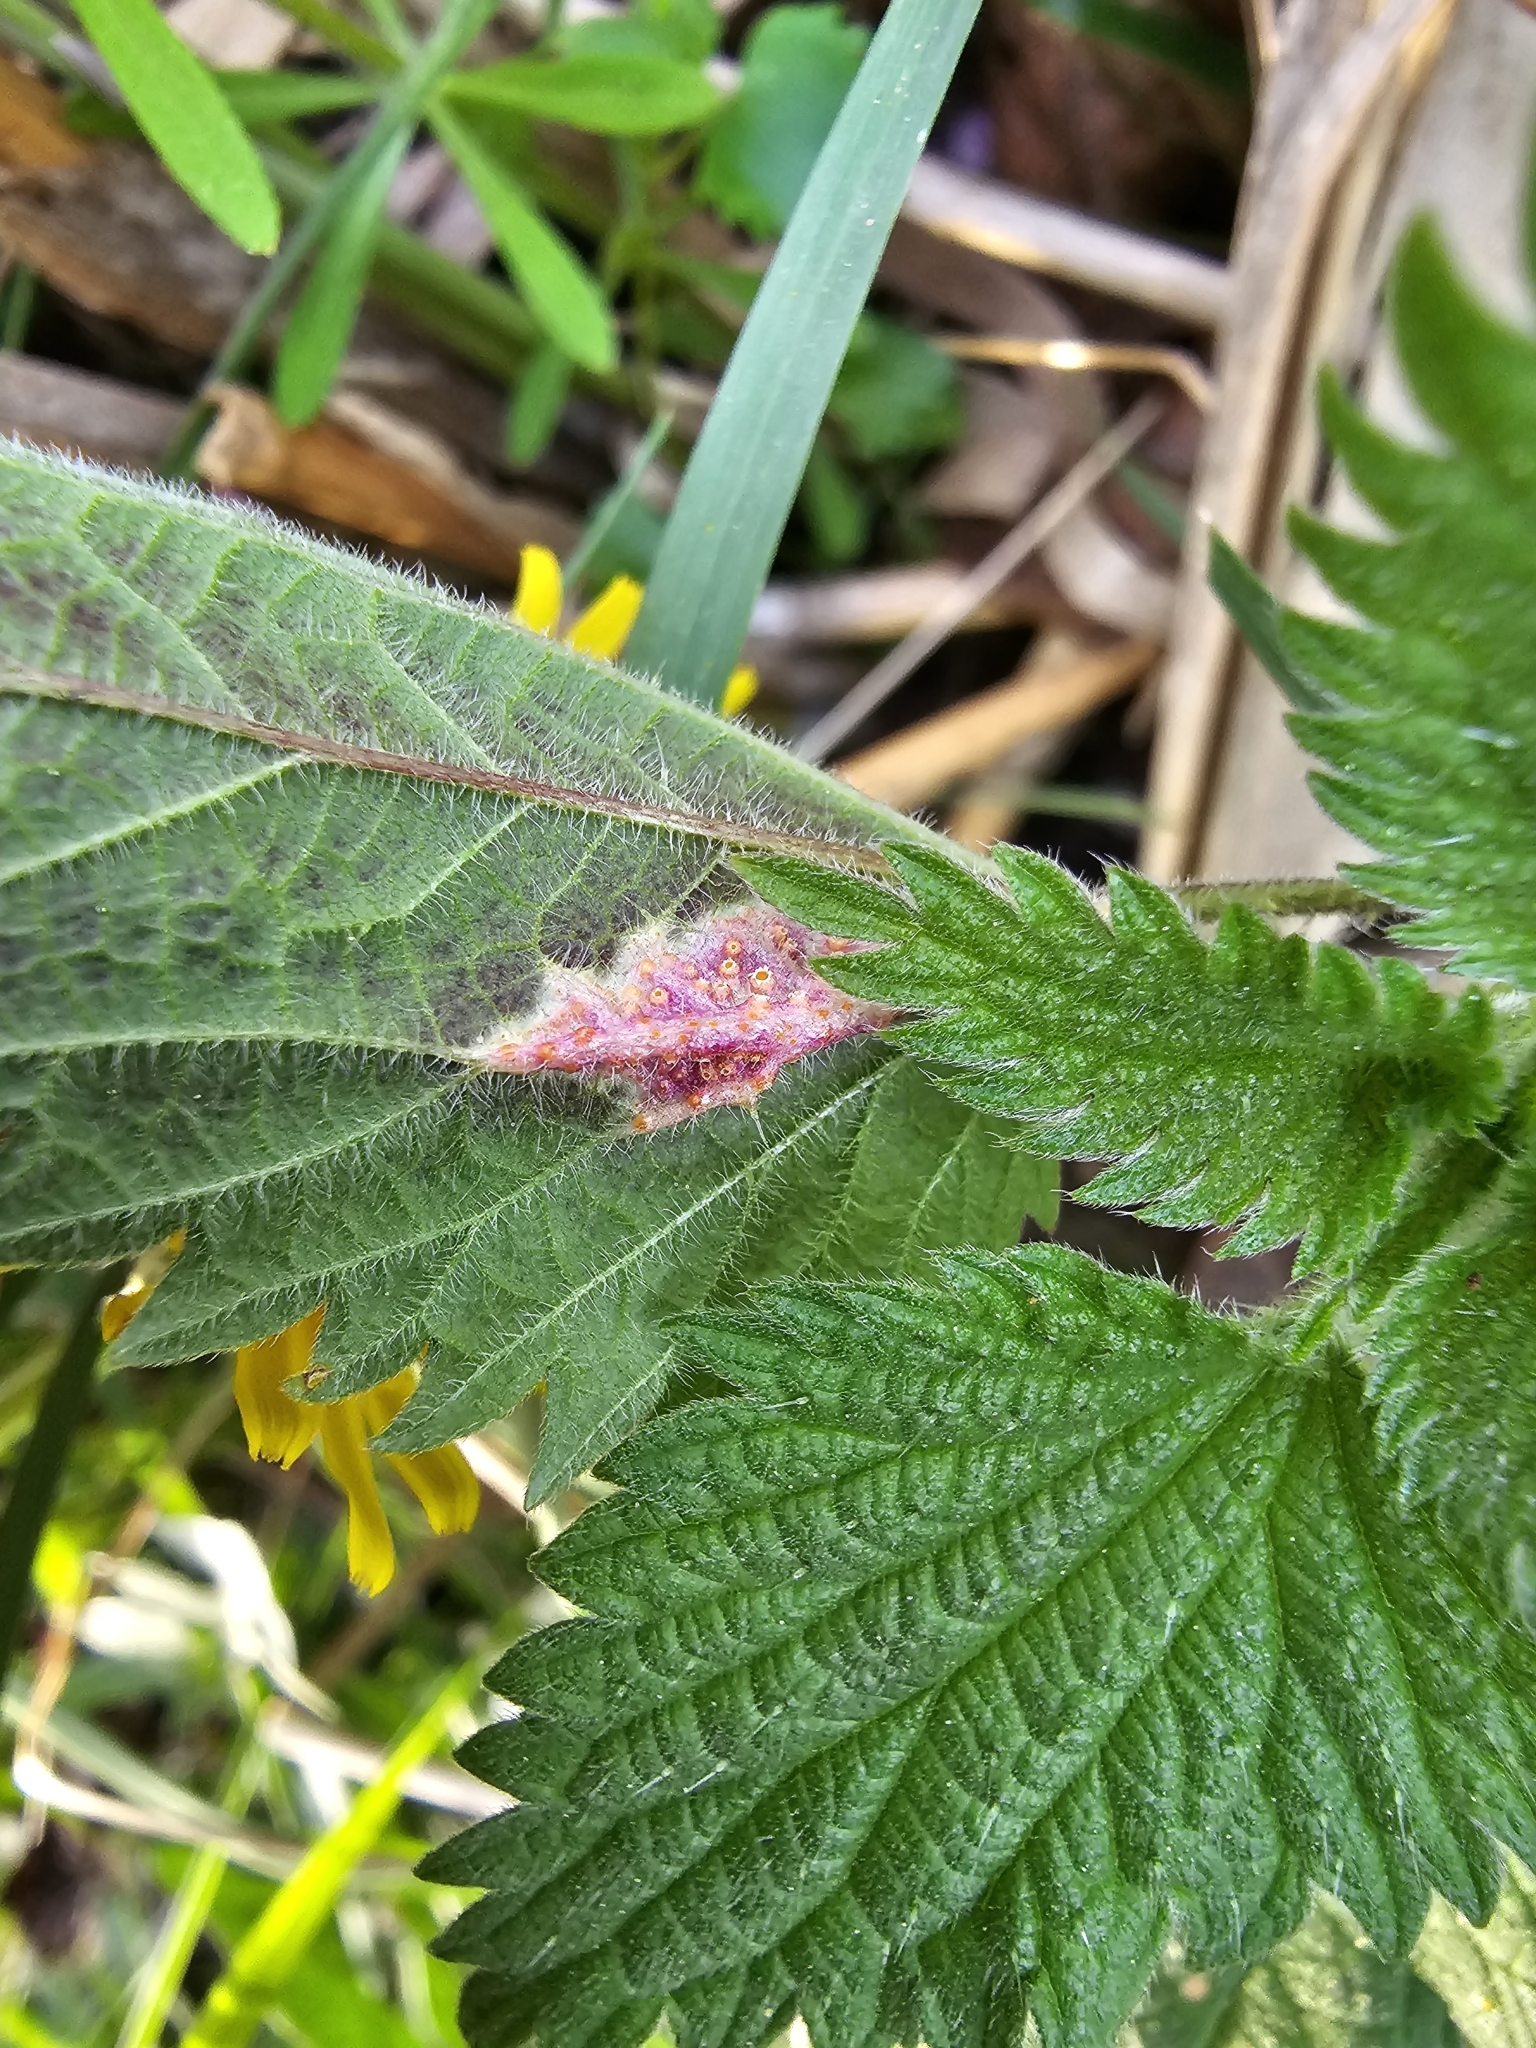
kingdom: Fungi
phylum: Basidiomycota
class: Pucciniomycetes
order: Pucciniales
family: Pucciniaceae
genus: Puccinia
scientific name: Puccinia urticata
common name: Nettle clustercup rust fungus
